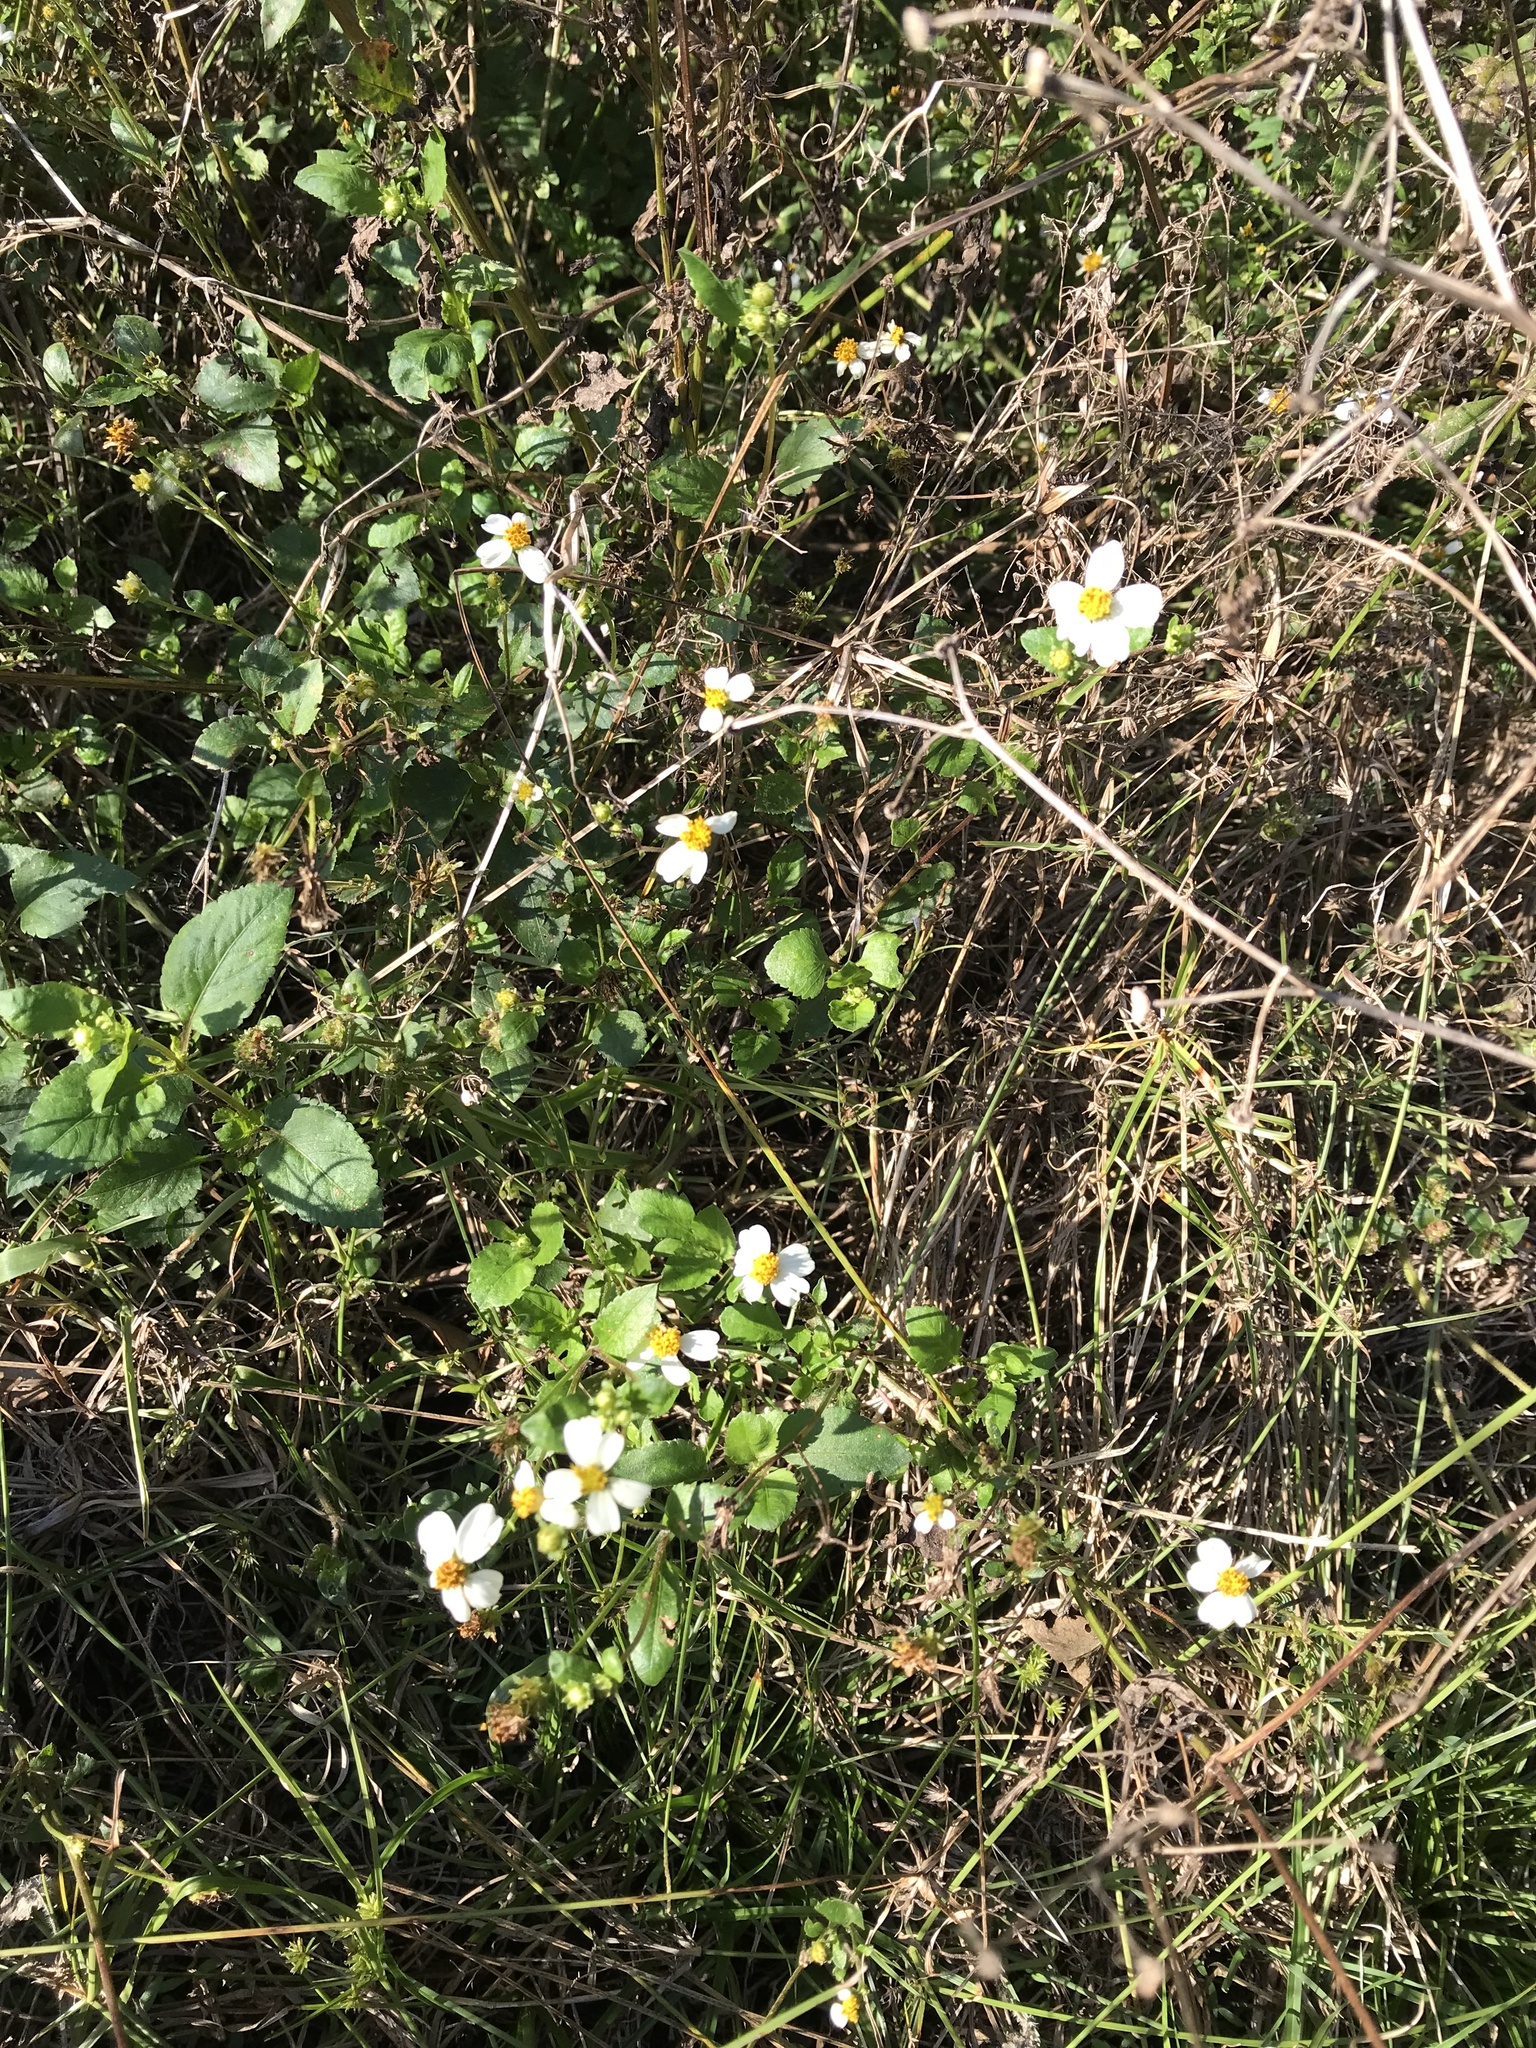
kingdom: Plantae
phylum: Tracheophyta
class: Magnoliopsida
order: Asterales
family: Asteraceae
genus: Bidens
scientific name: Bidens alba
